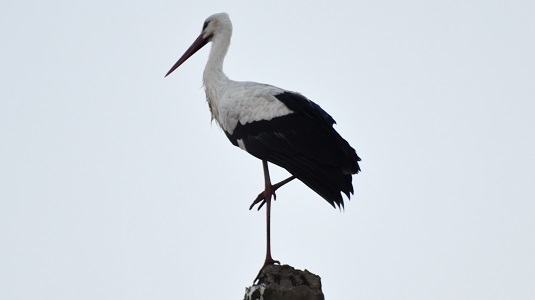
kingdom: Animalia
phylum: Chordata
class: Aves
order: Ciconiiformes
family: Ciconiidae
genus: Ciconia
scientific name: Ciconia ciconia
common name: White stork
